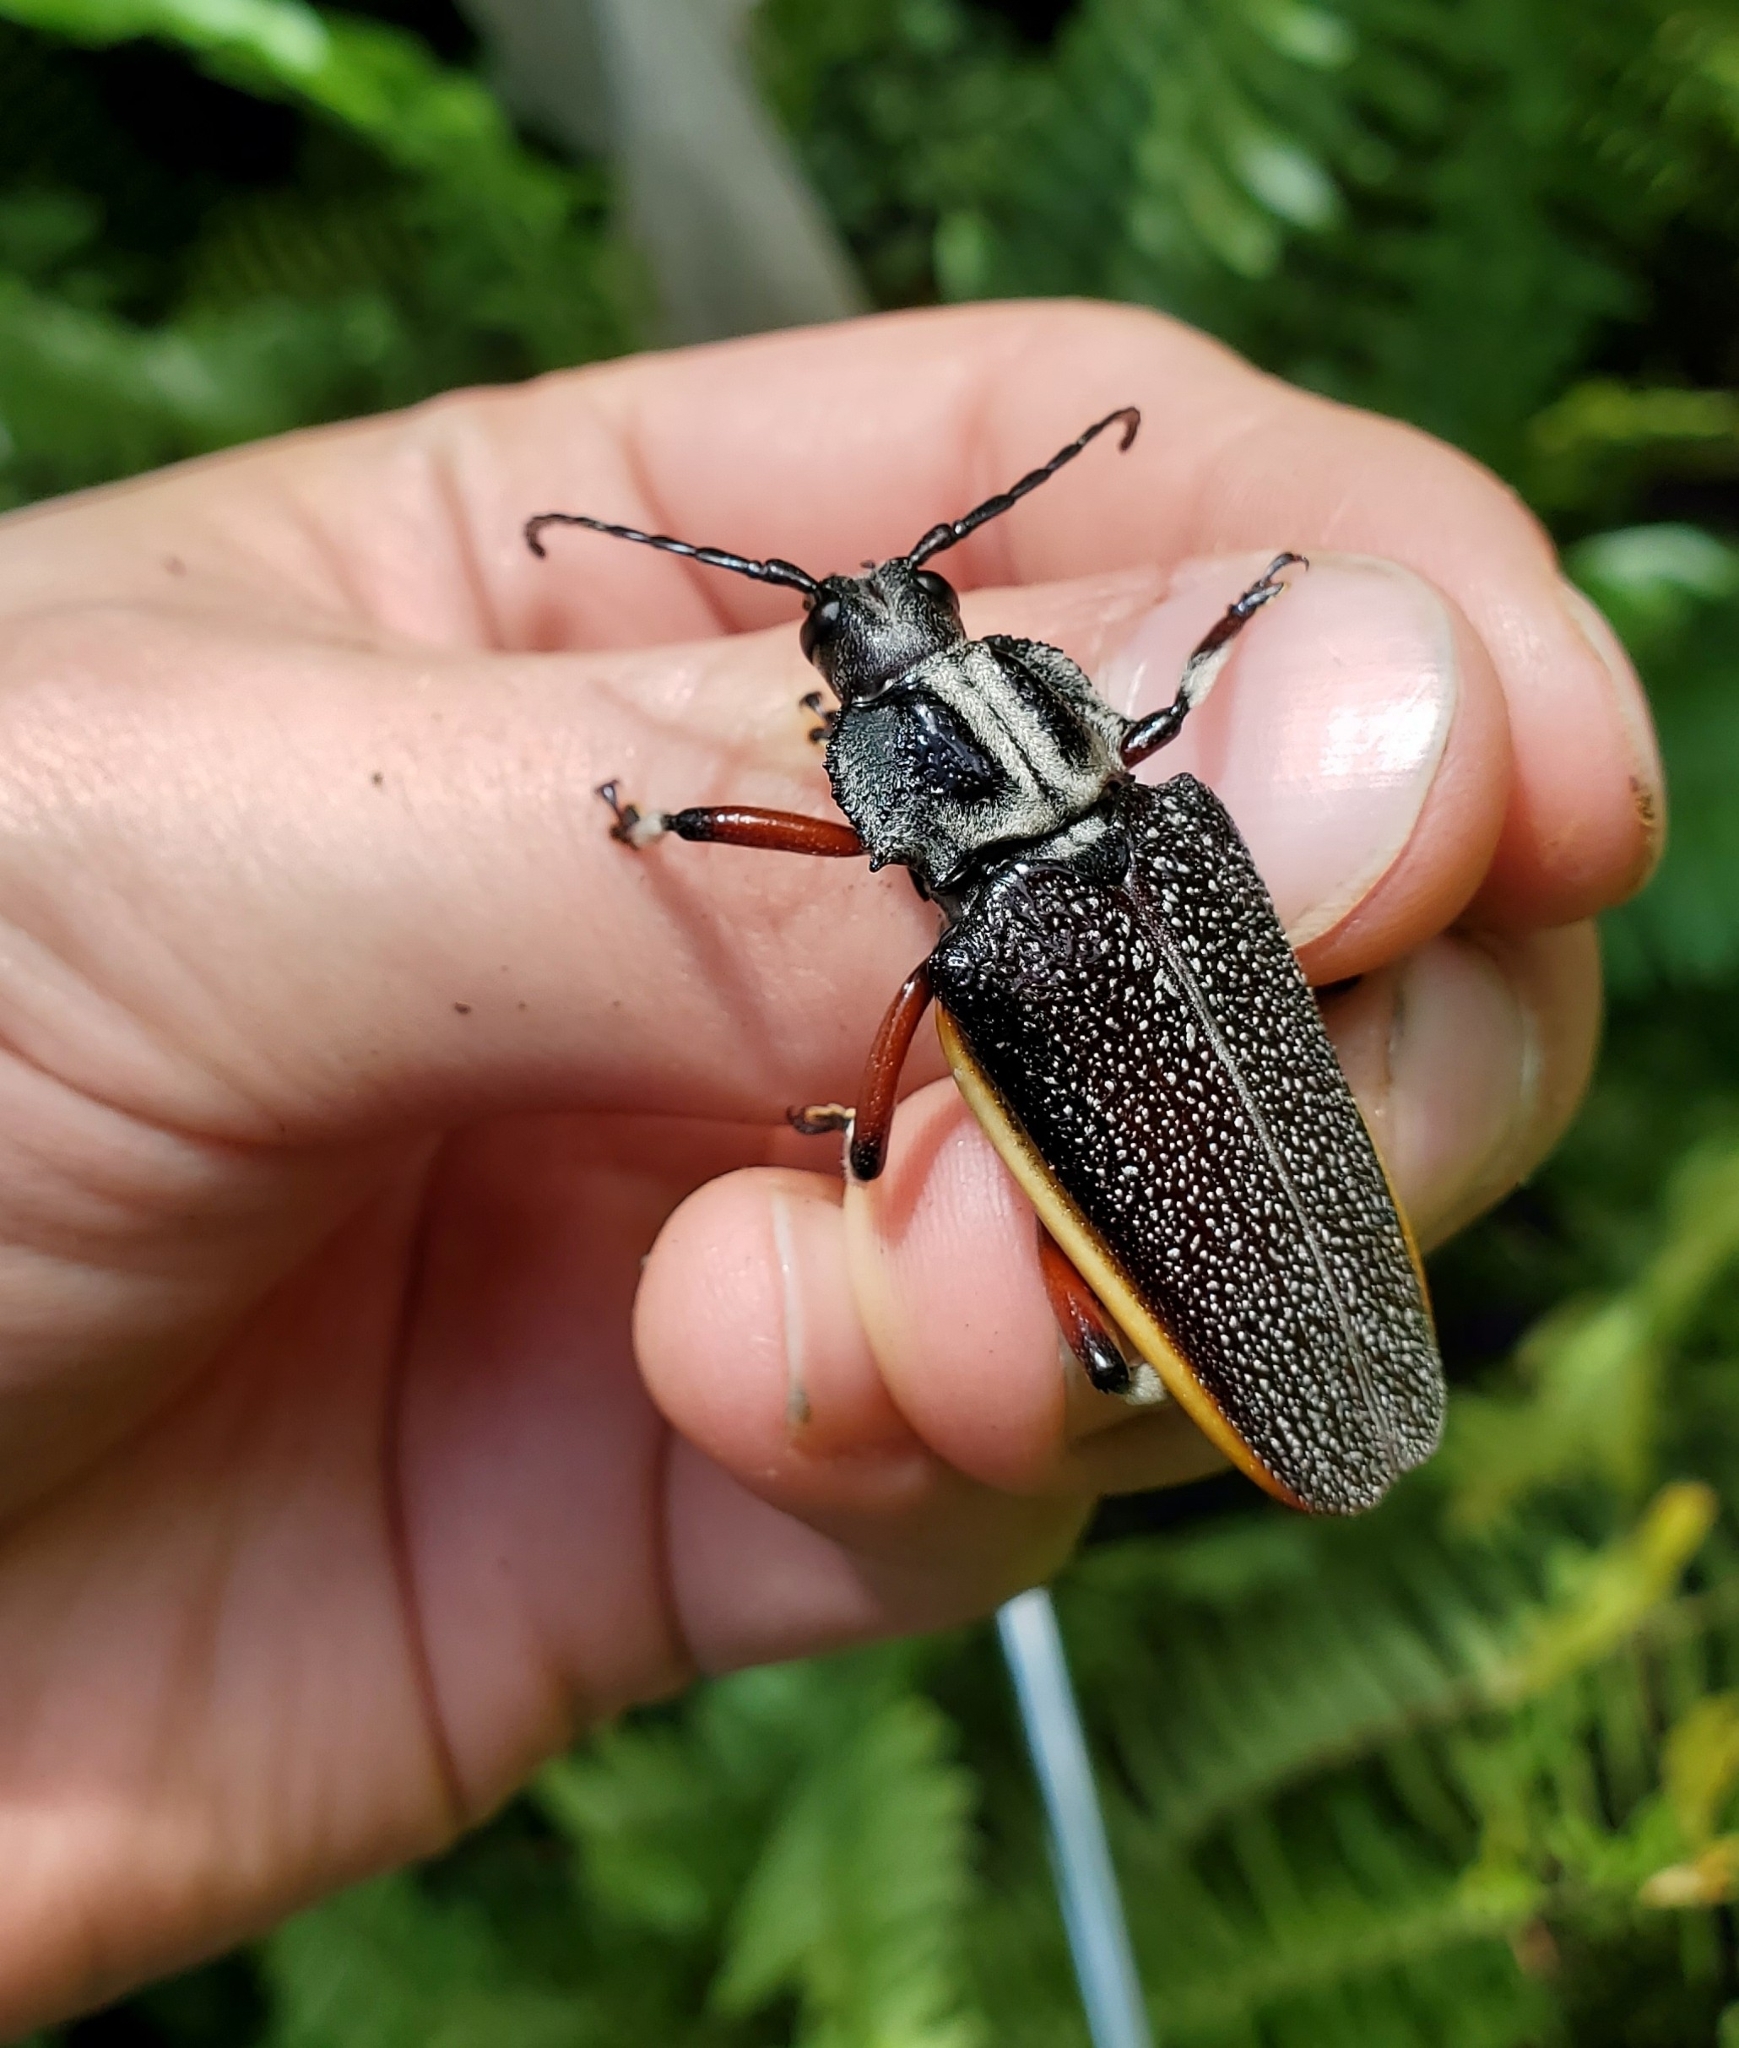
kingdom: Animalia
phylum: Arthropoda
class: Insecta
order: Coleoptera
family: Cerambycidae
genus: Solenoptera
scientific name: Solenoptera bilineata
